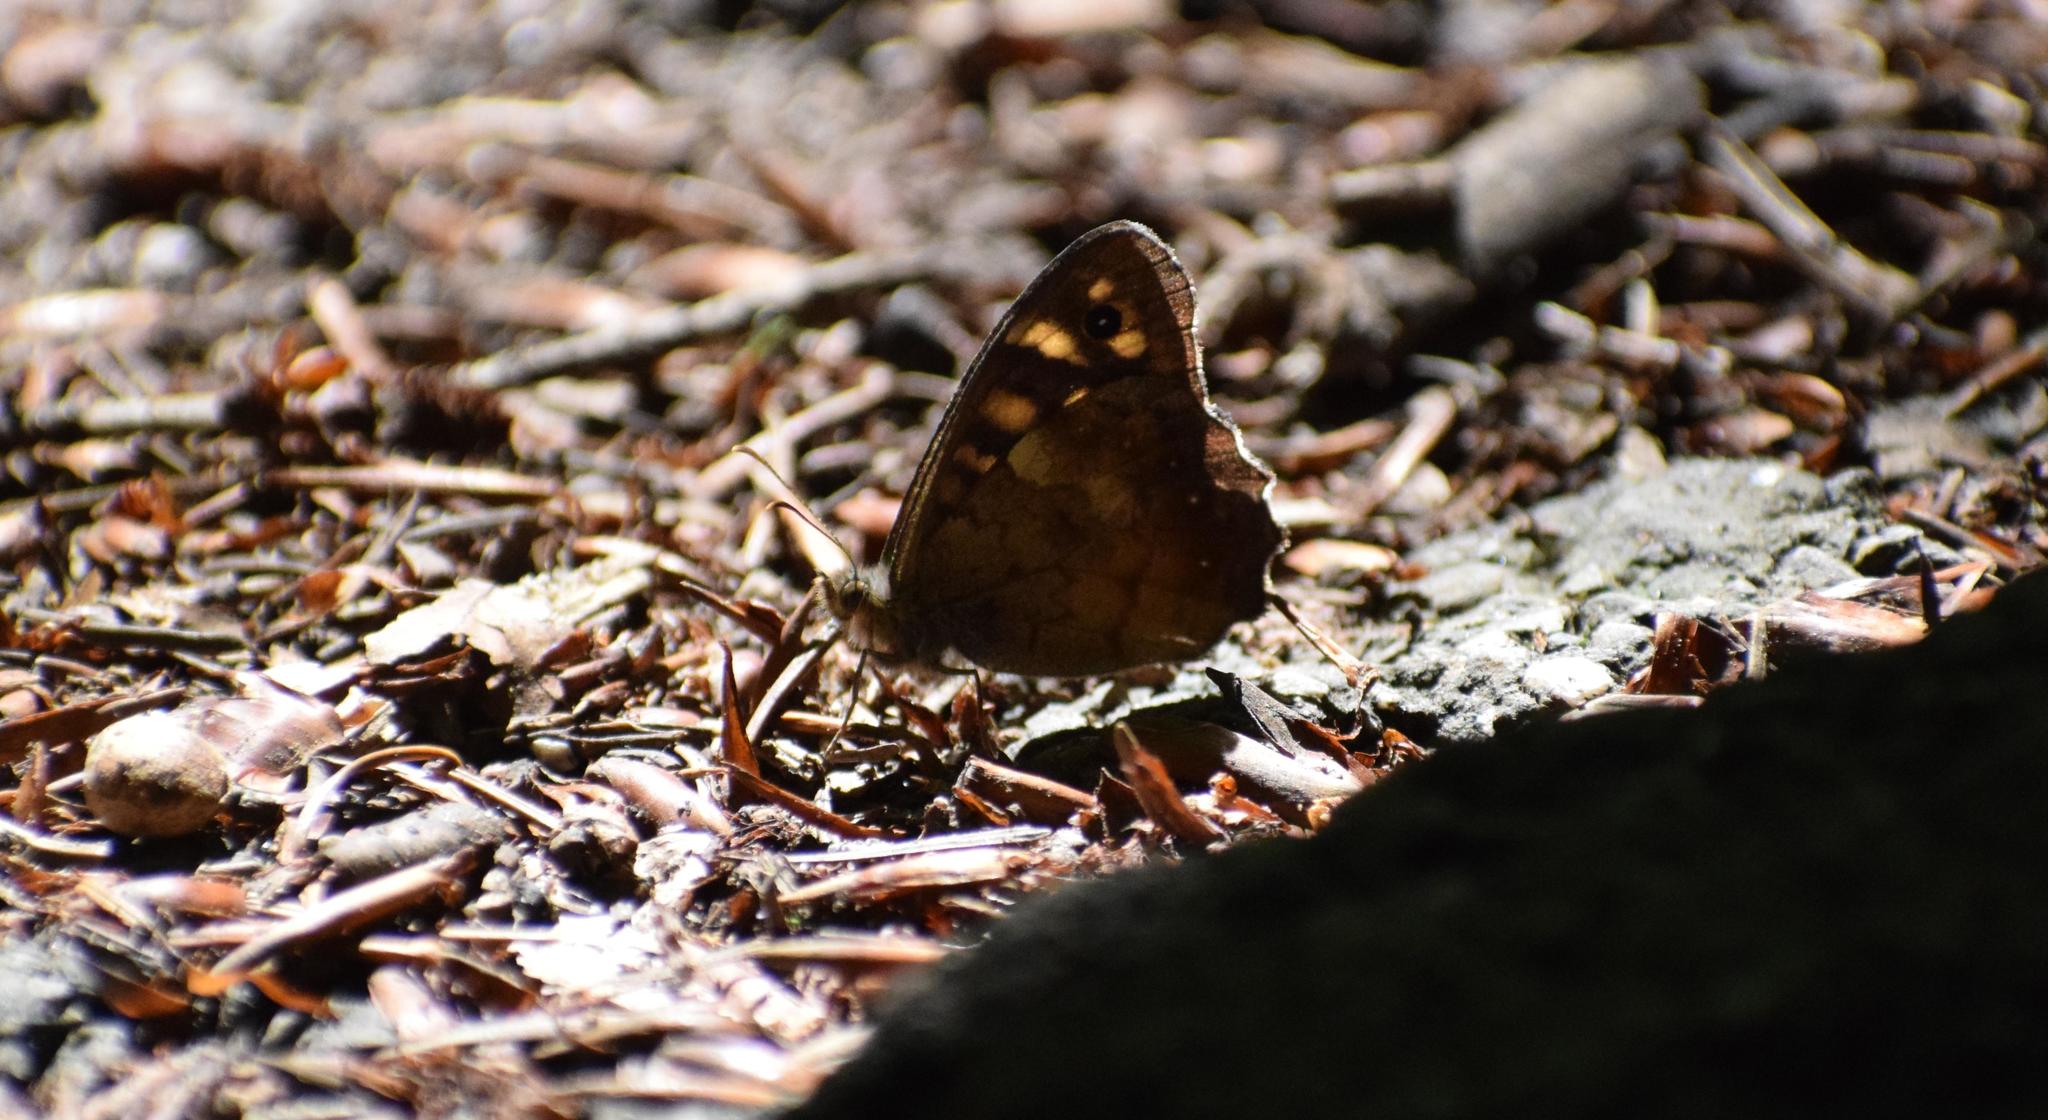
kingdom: Animalia
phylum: Arthropoda
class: Insecta
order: Lepidoptera
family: Nymphalidae
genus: Pararge
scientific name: Pararge aegeria
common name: Speckled wood
